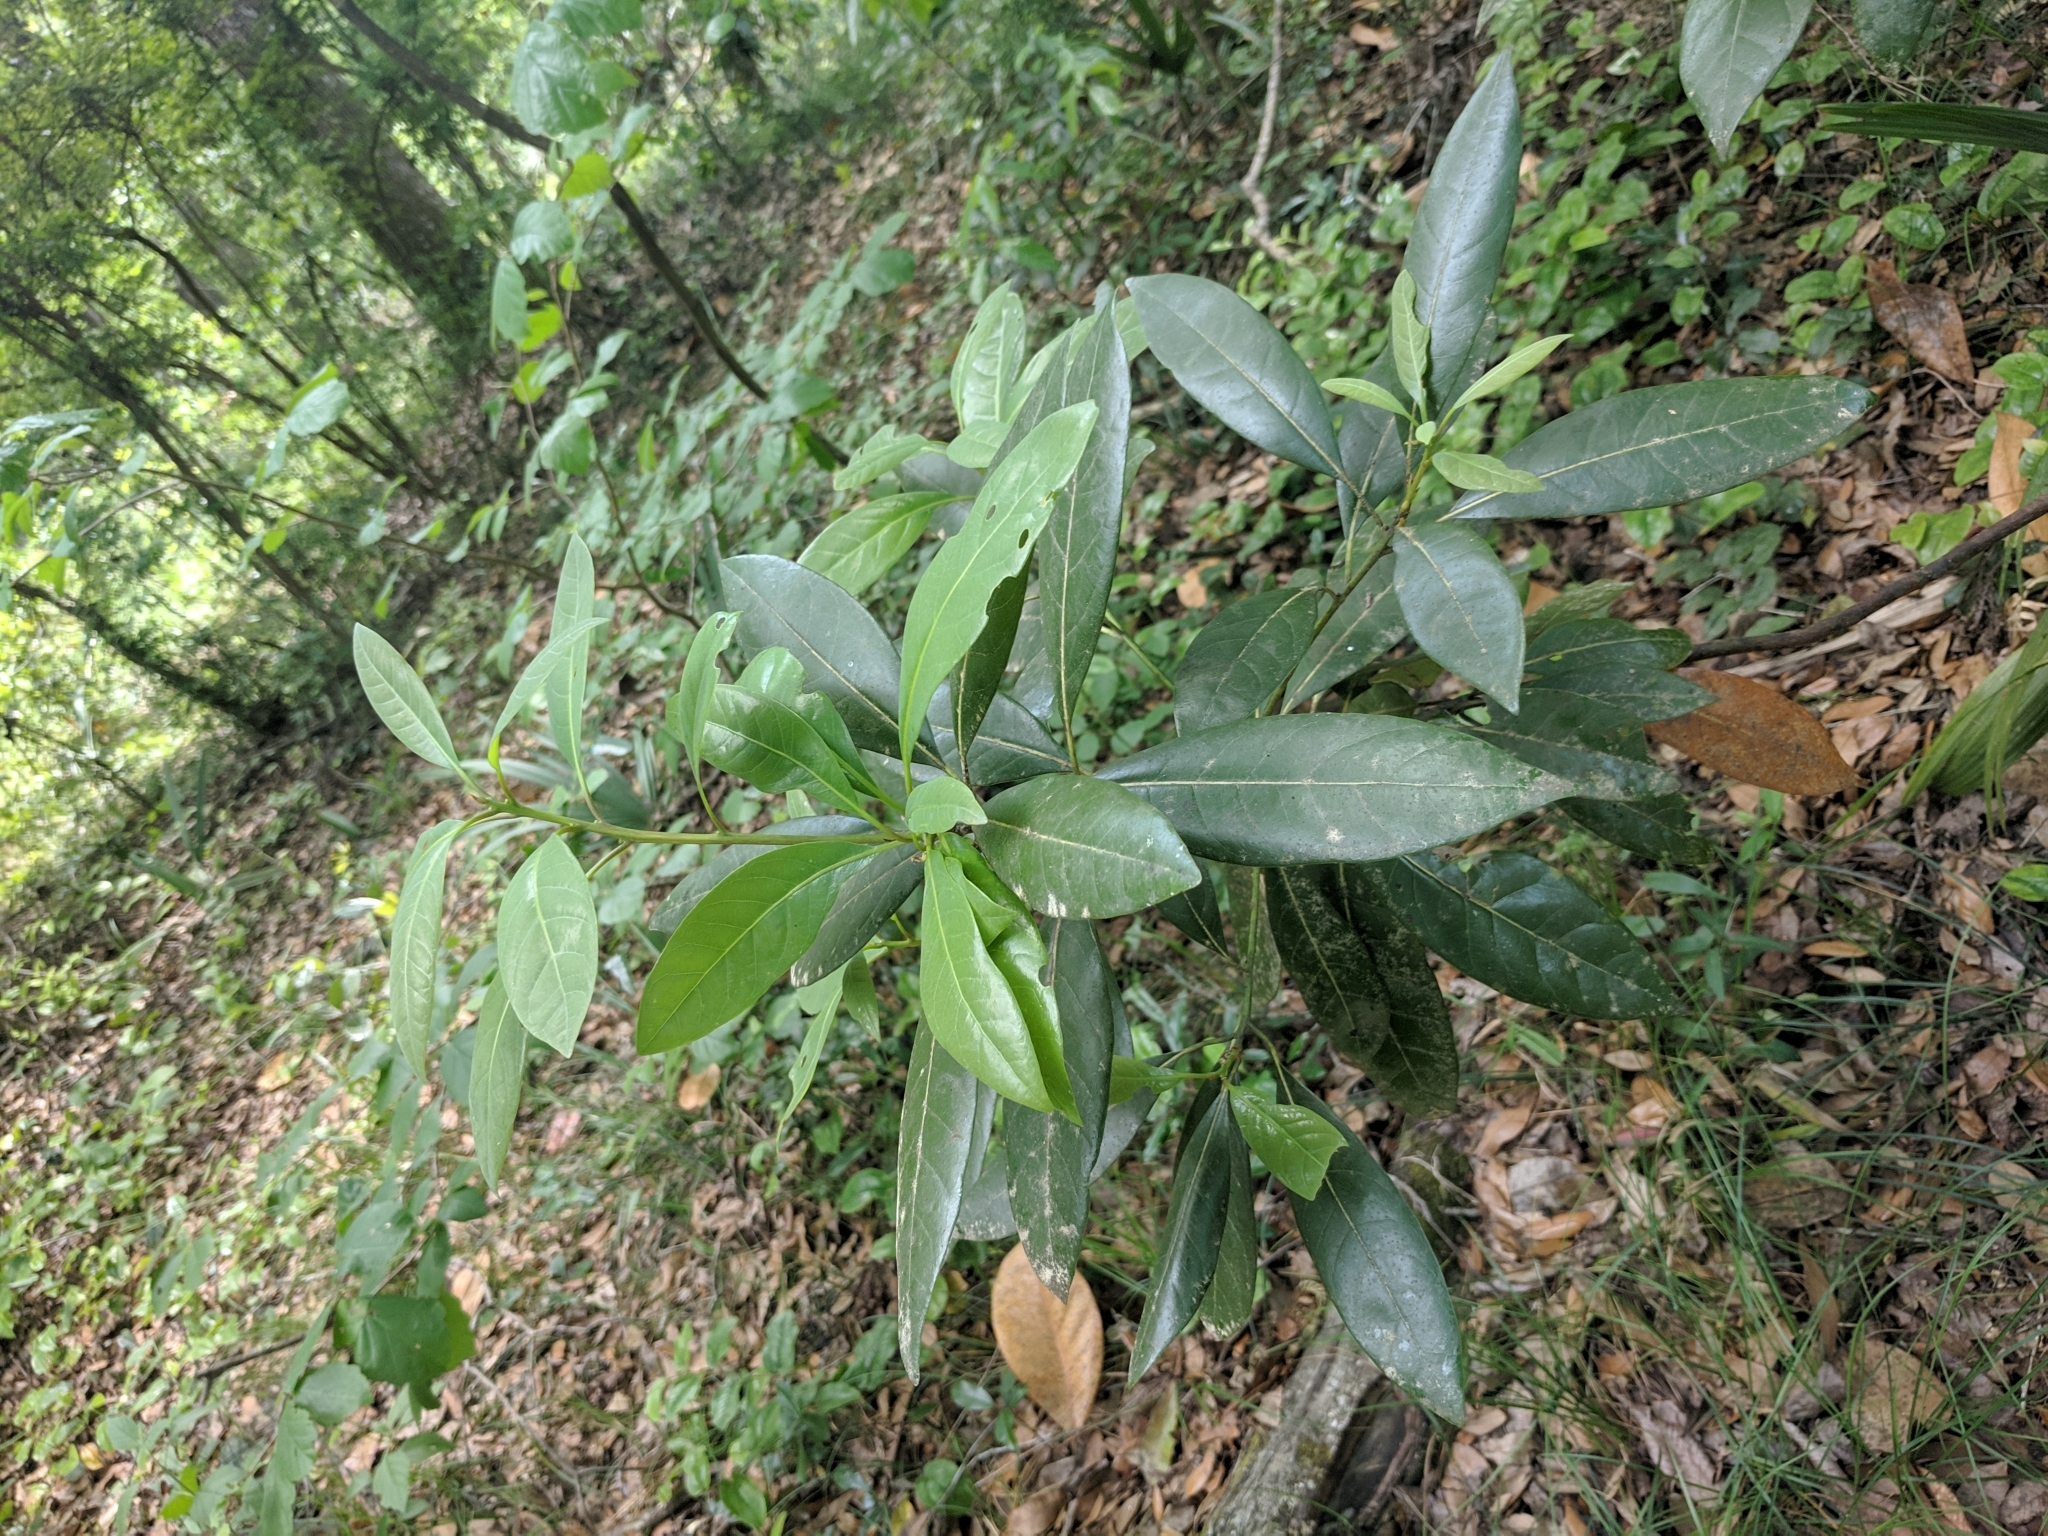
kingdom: Plantae
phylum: Tracheophyta
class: Magnoliopsida
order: Laurales
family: Lauraceae
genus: Persea
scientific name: Persea palustris
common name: Swampbay
